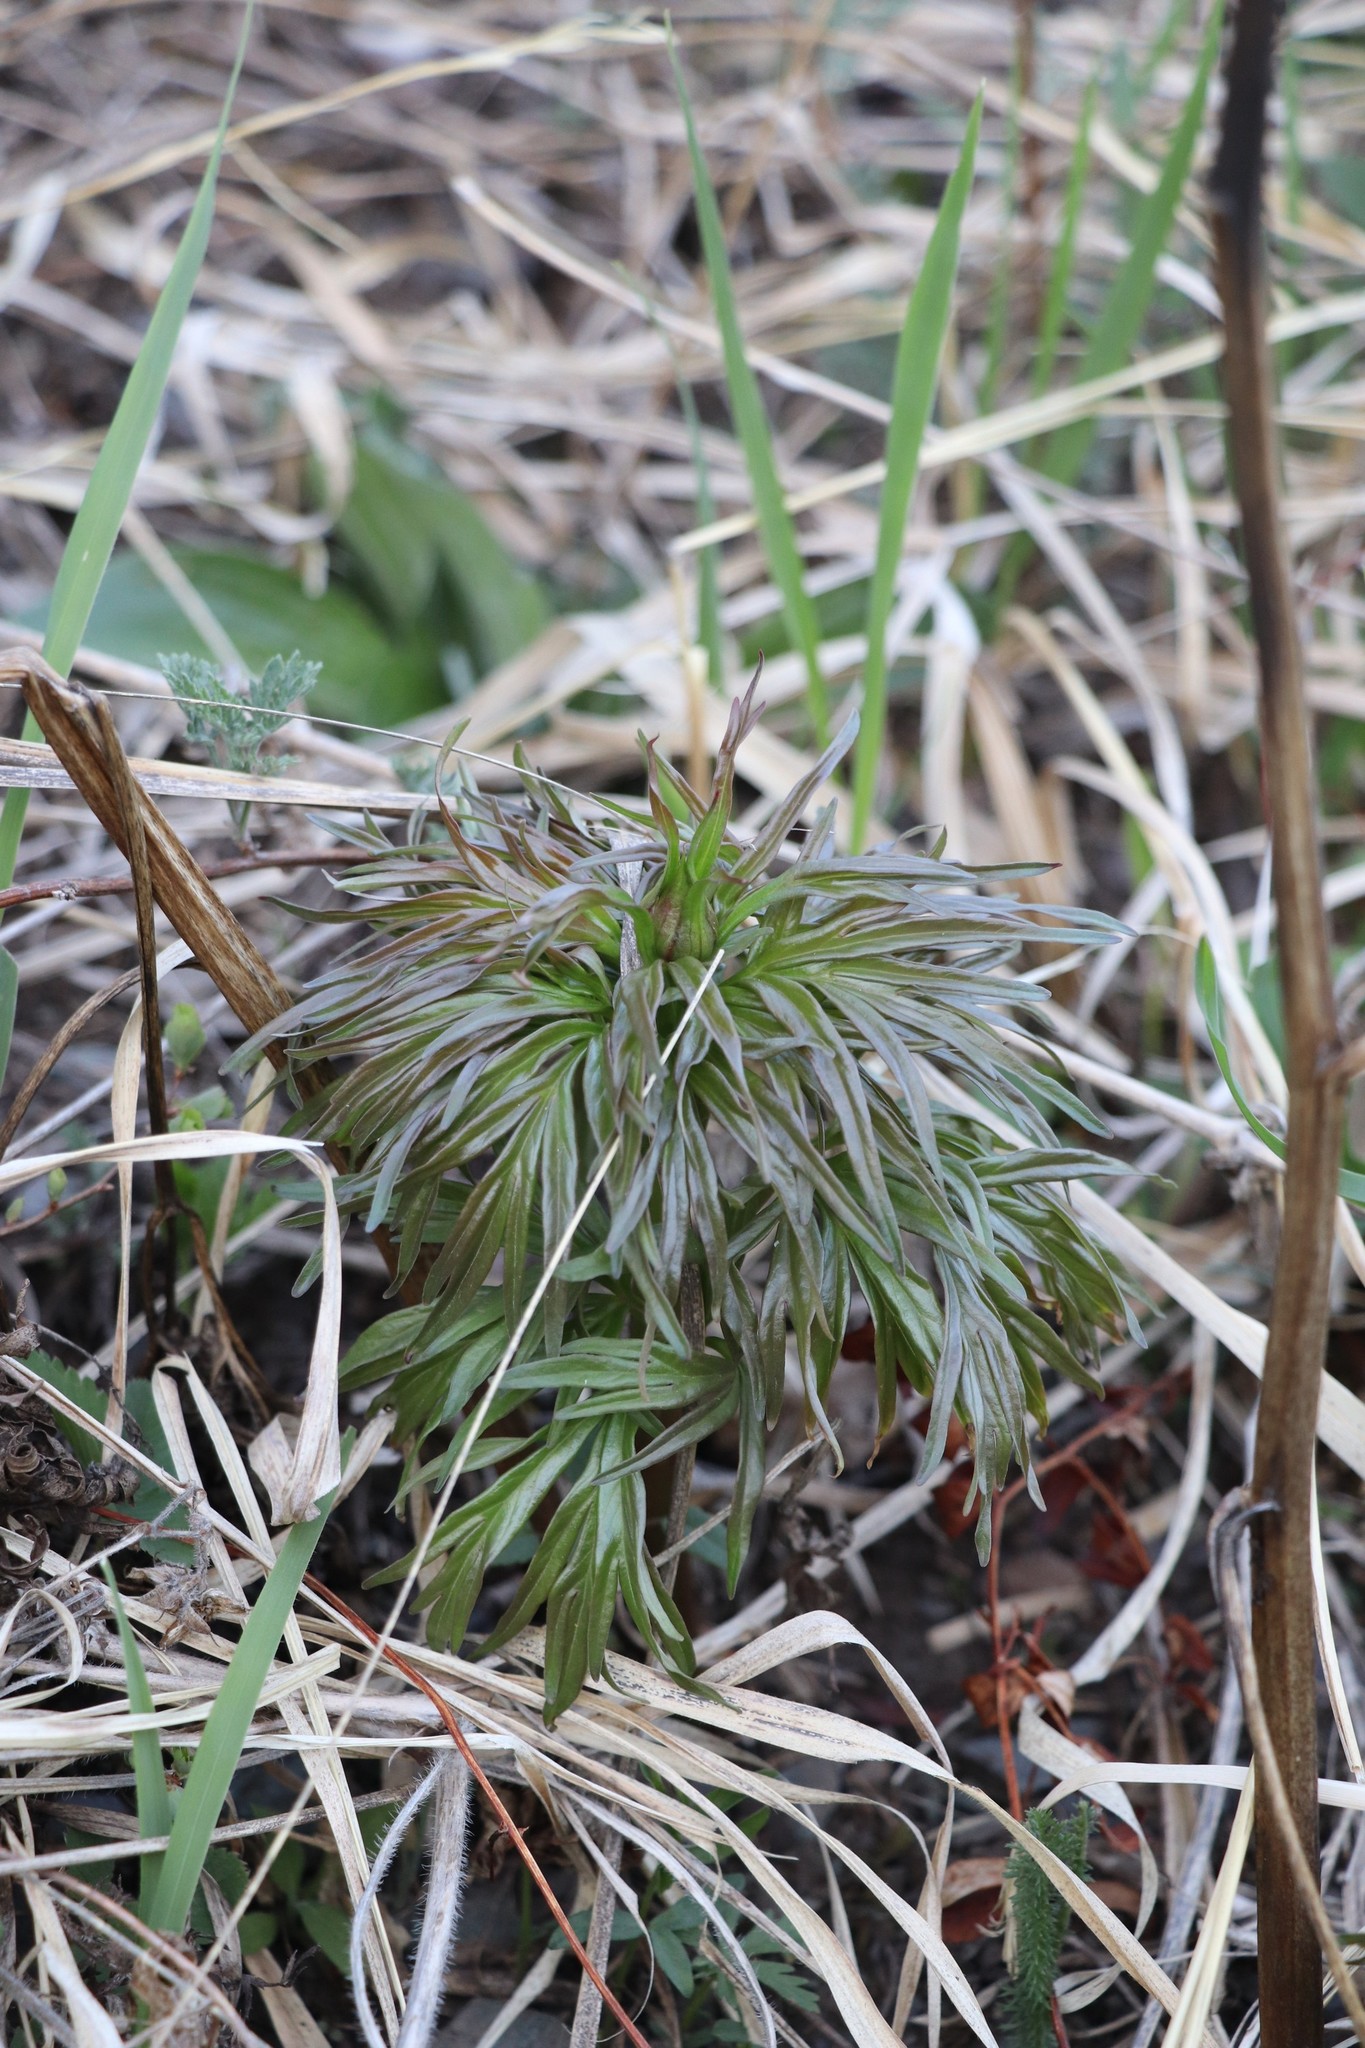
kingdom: Plantae
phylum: Tracheophyta
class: Magnoliopsida
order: Saxifragales
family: Paeoniaceae
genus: Paeonia
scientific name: Paeonia anomala
